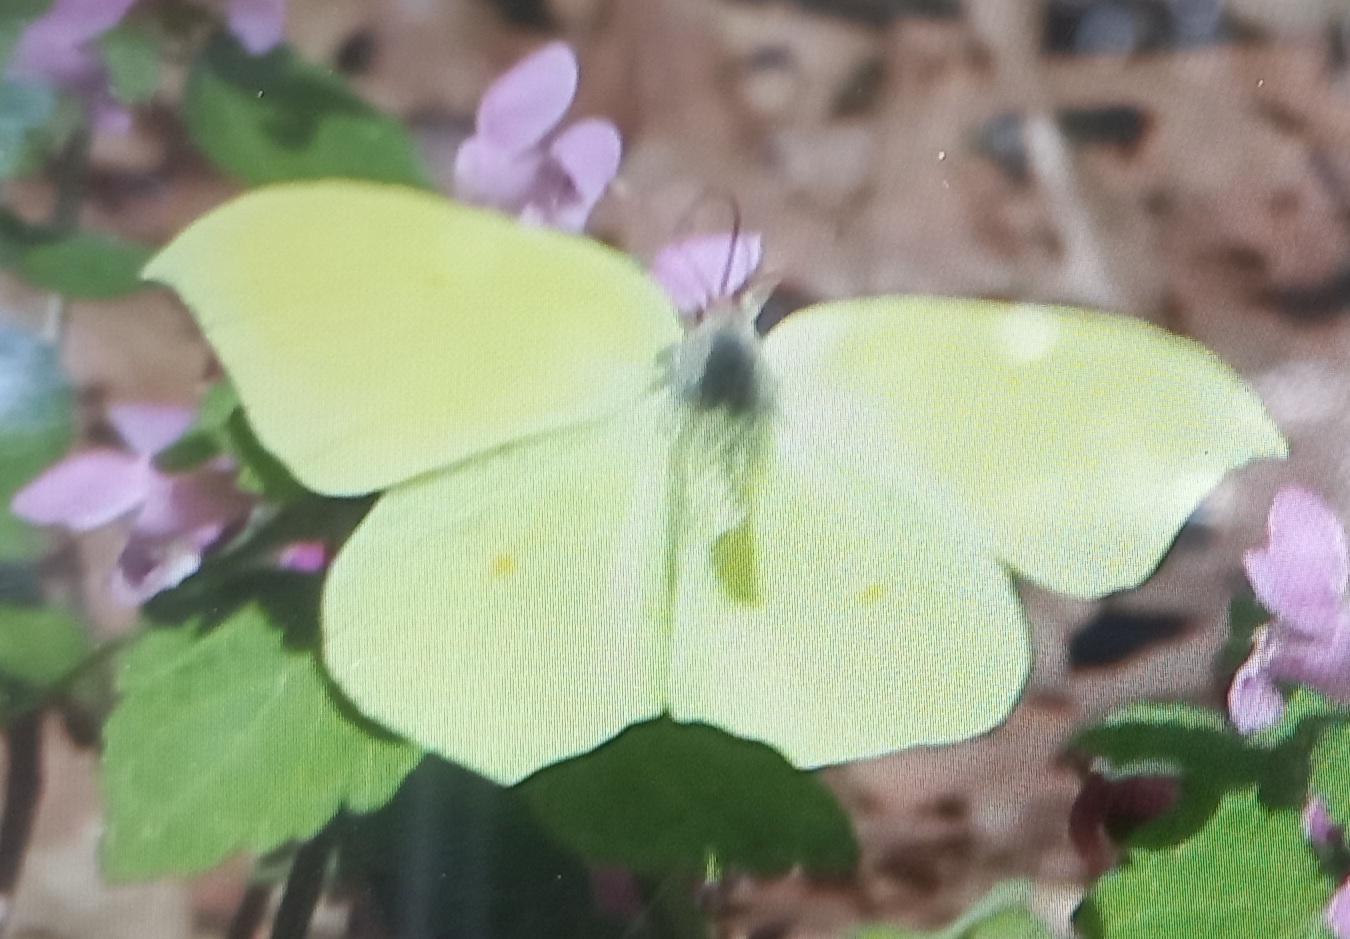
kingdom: Animalia
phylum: Arthropoda
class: Insecta
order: Lepidoptera
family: Pieridae
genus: Gonepteryx
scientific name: Gonepteryx rhamni
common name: Brimstone
